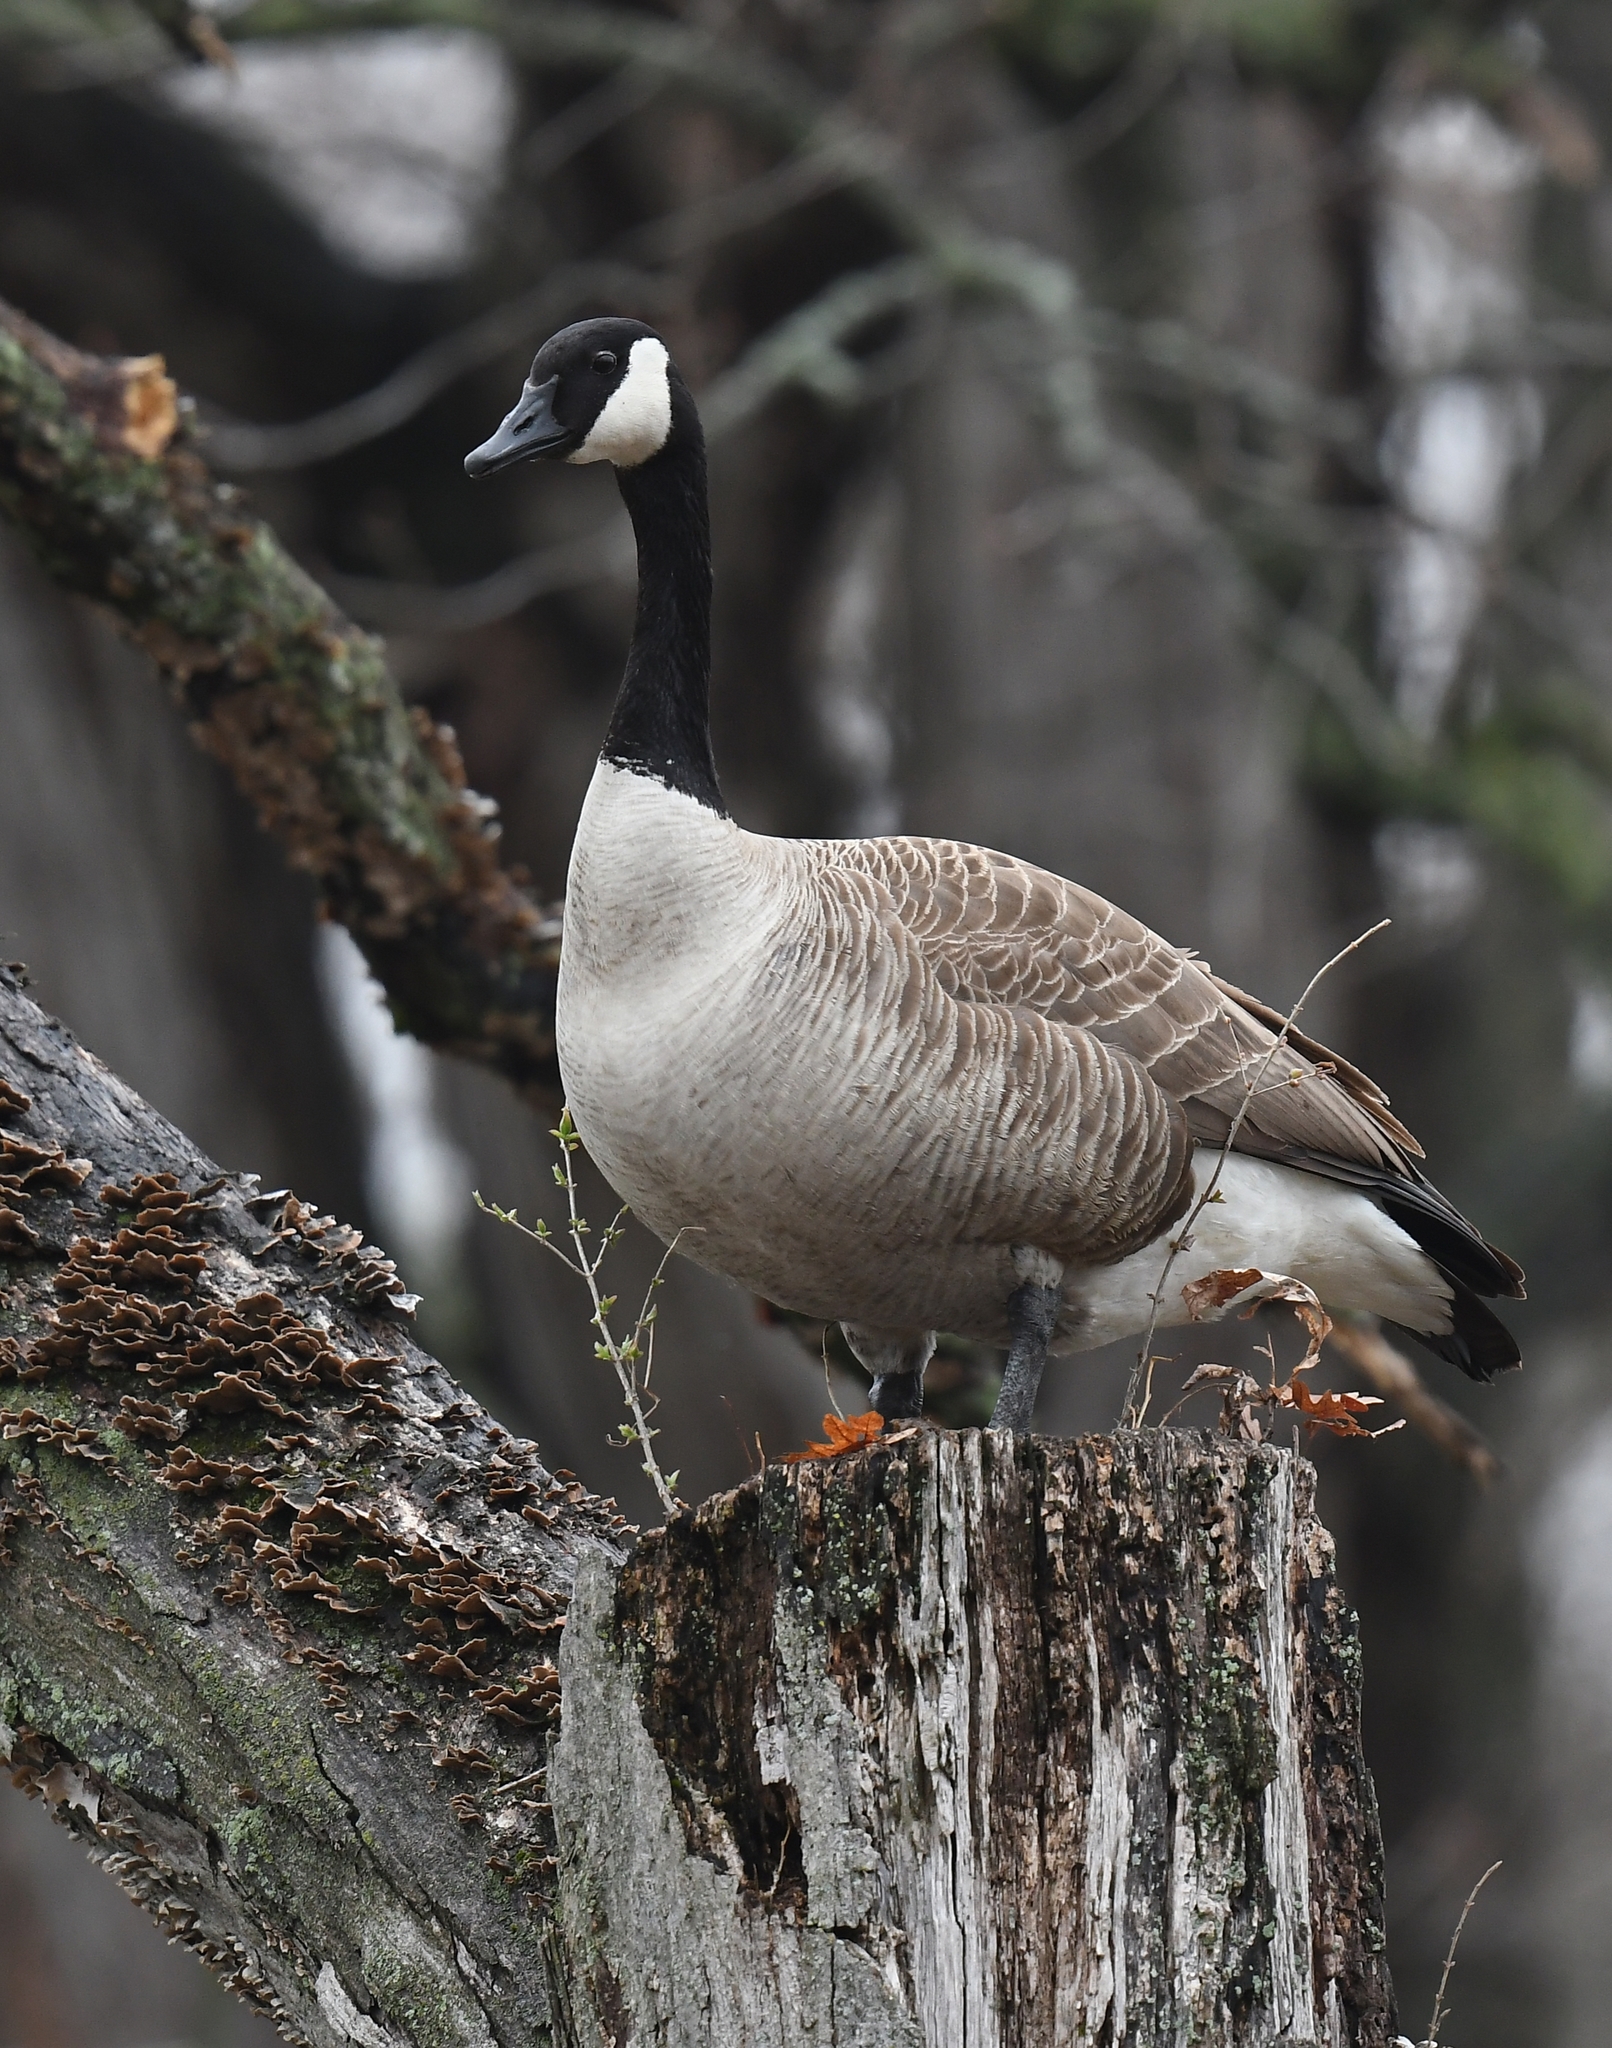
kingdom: Animalia
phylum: Chordata
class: Aves
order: Anseriformes
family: Anatidae
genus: Branta
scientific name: Branta canadensis
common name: Canada goose
